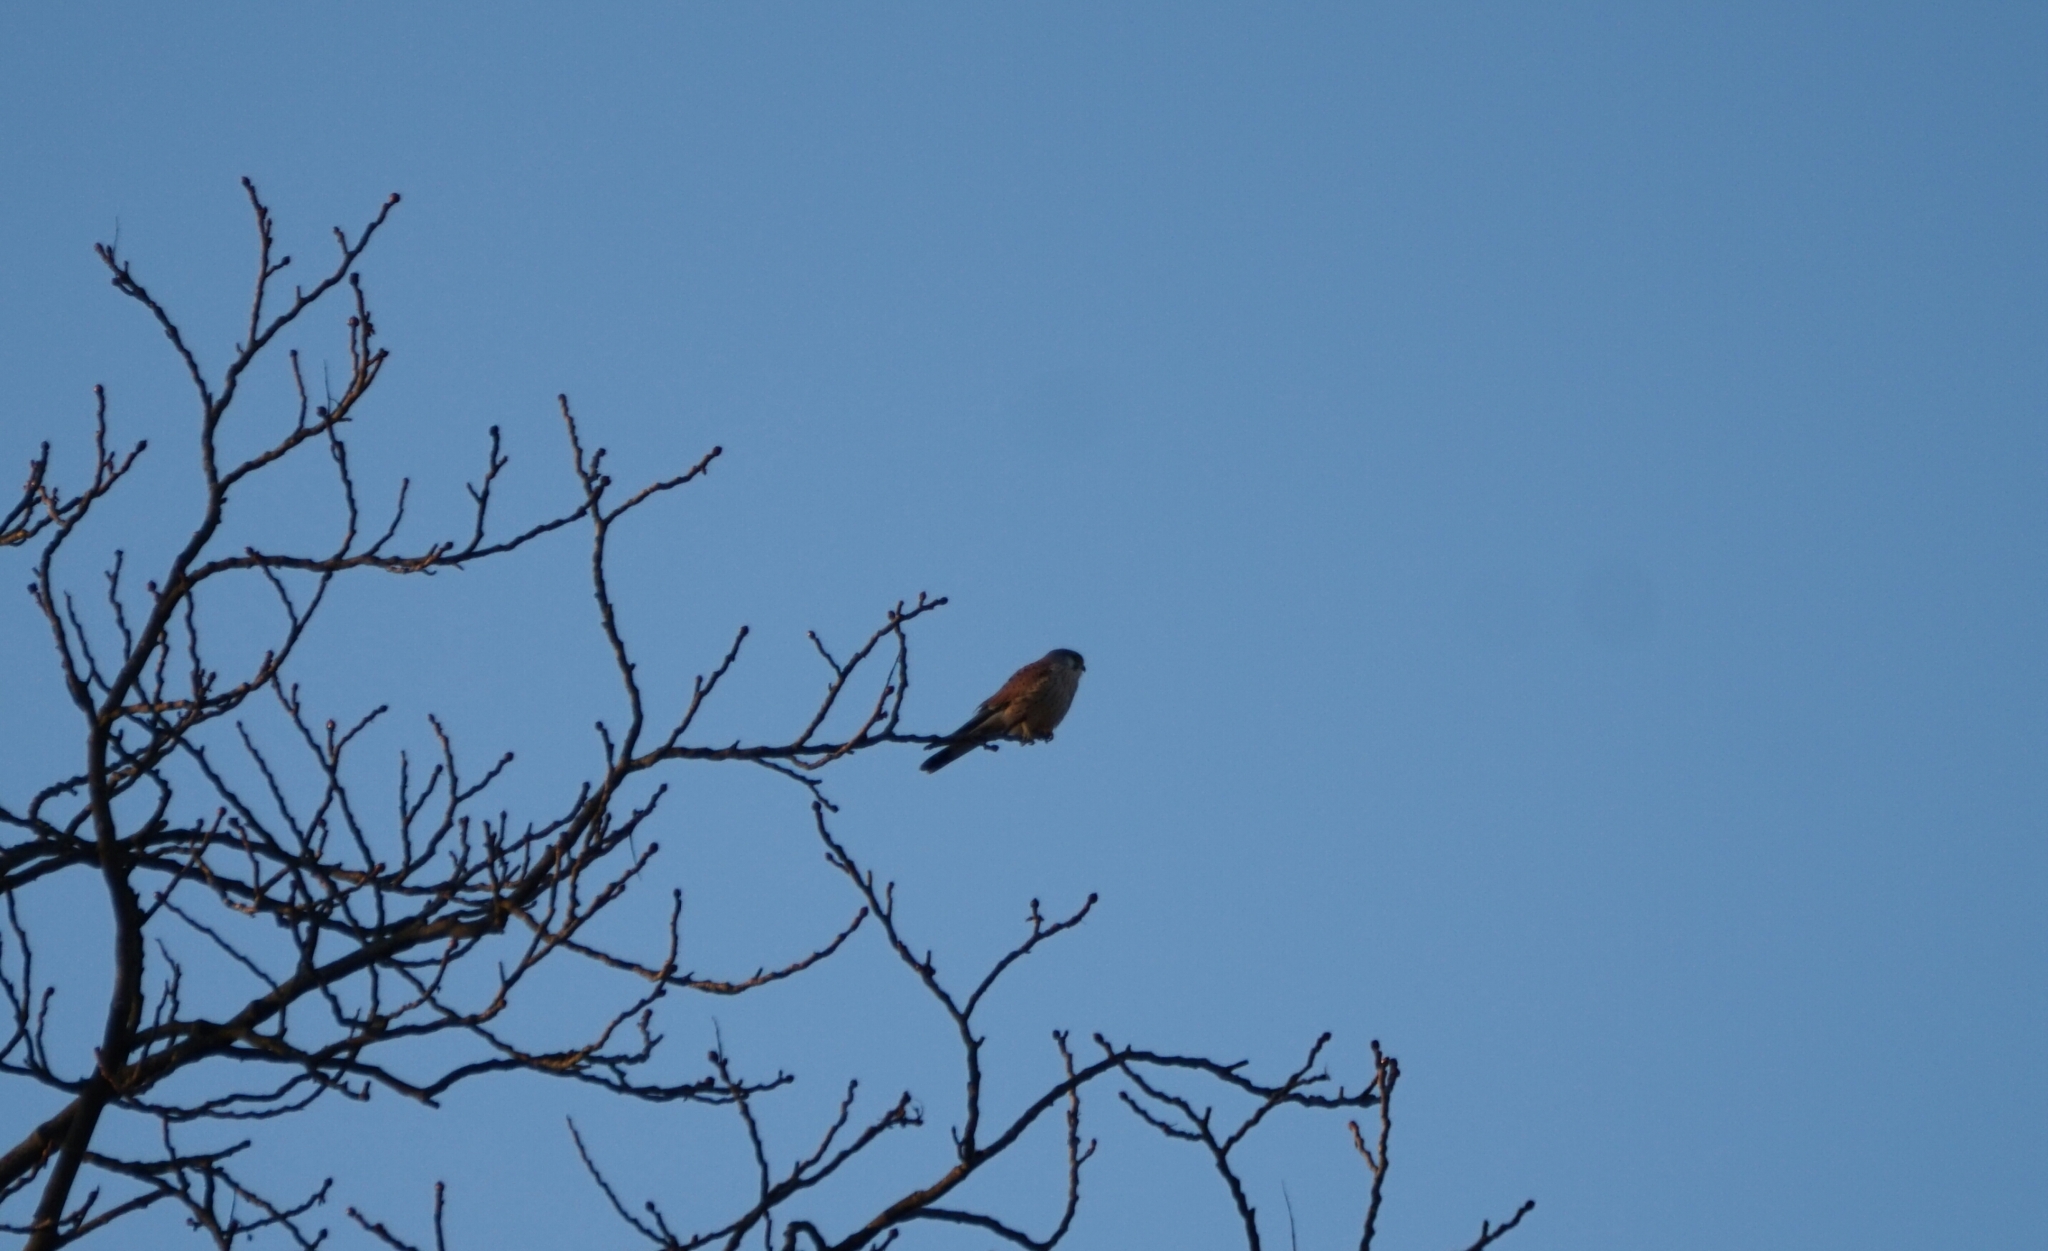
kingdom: Animalia
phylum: Chordata
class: Aves
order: Falconiformes
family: Falconidae
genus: Falco
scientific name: Falco tinnunculus
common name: Common kestrel
